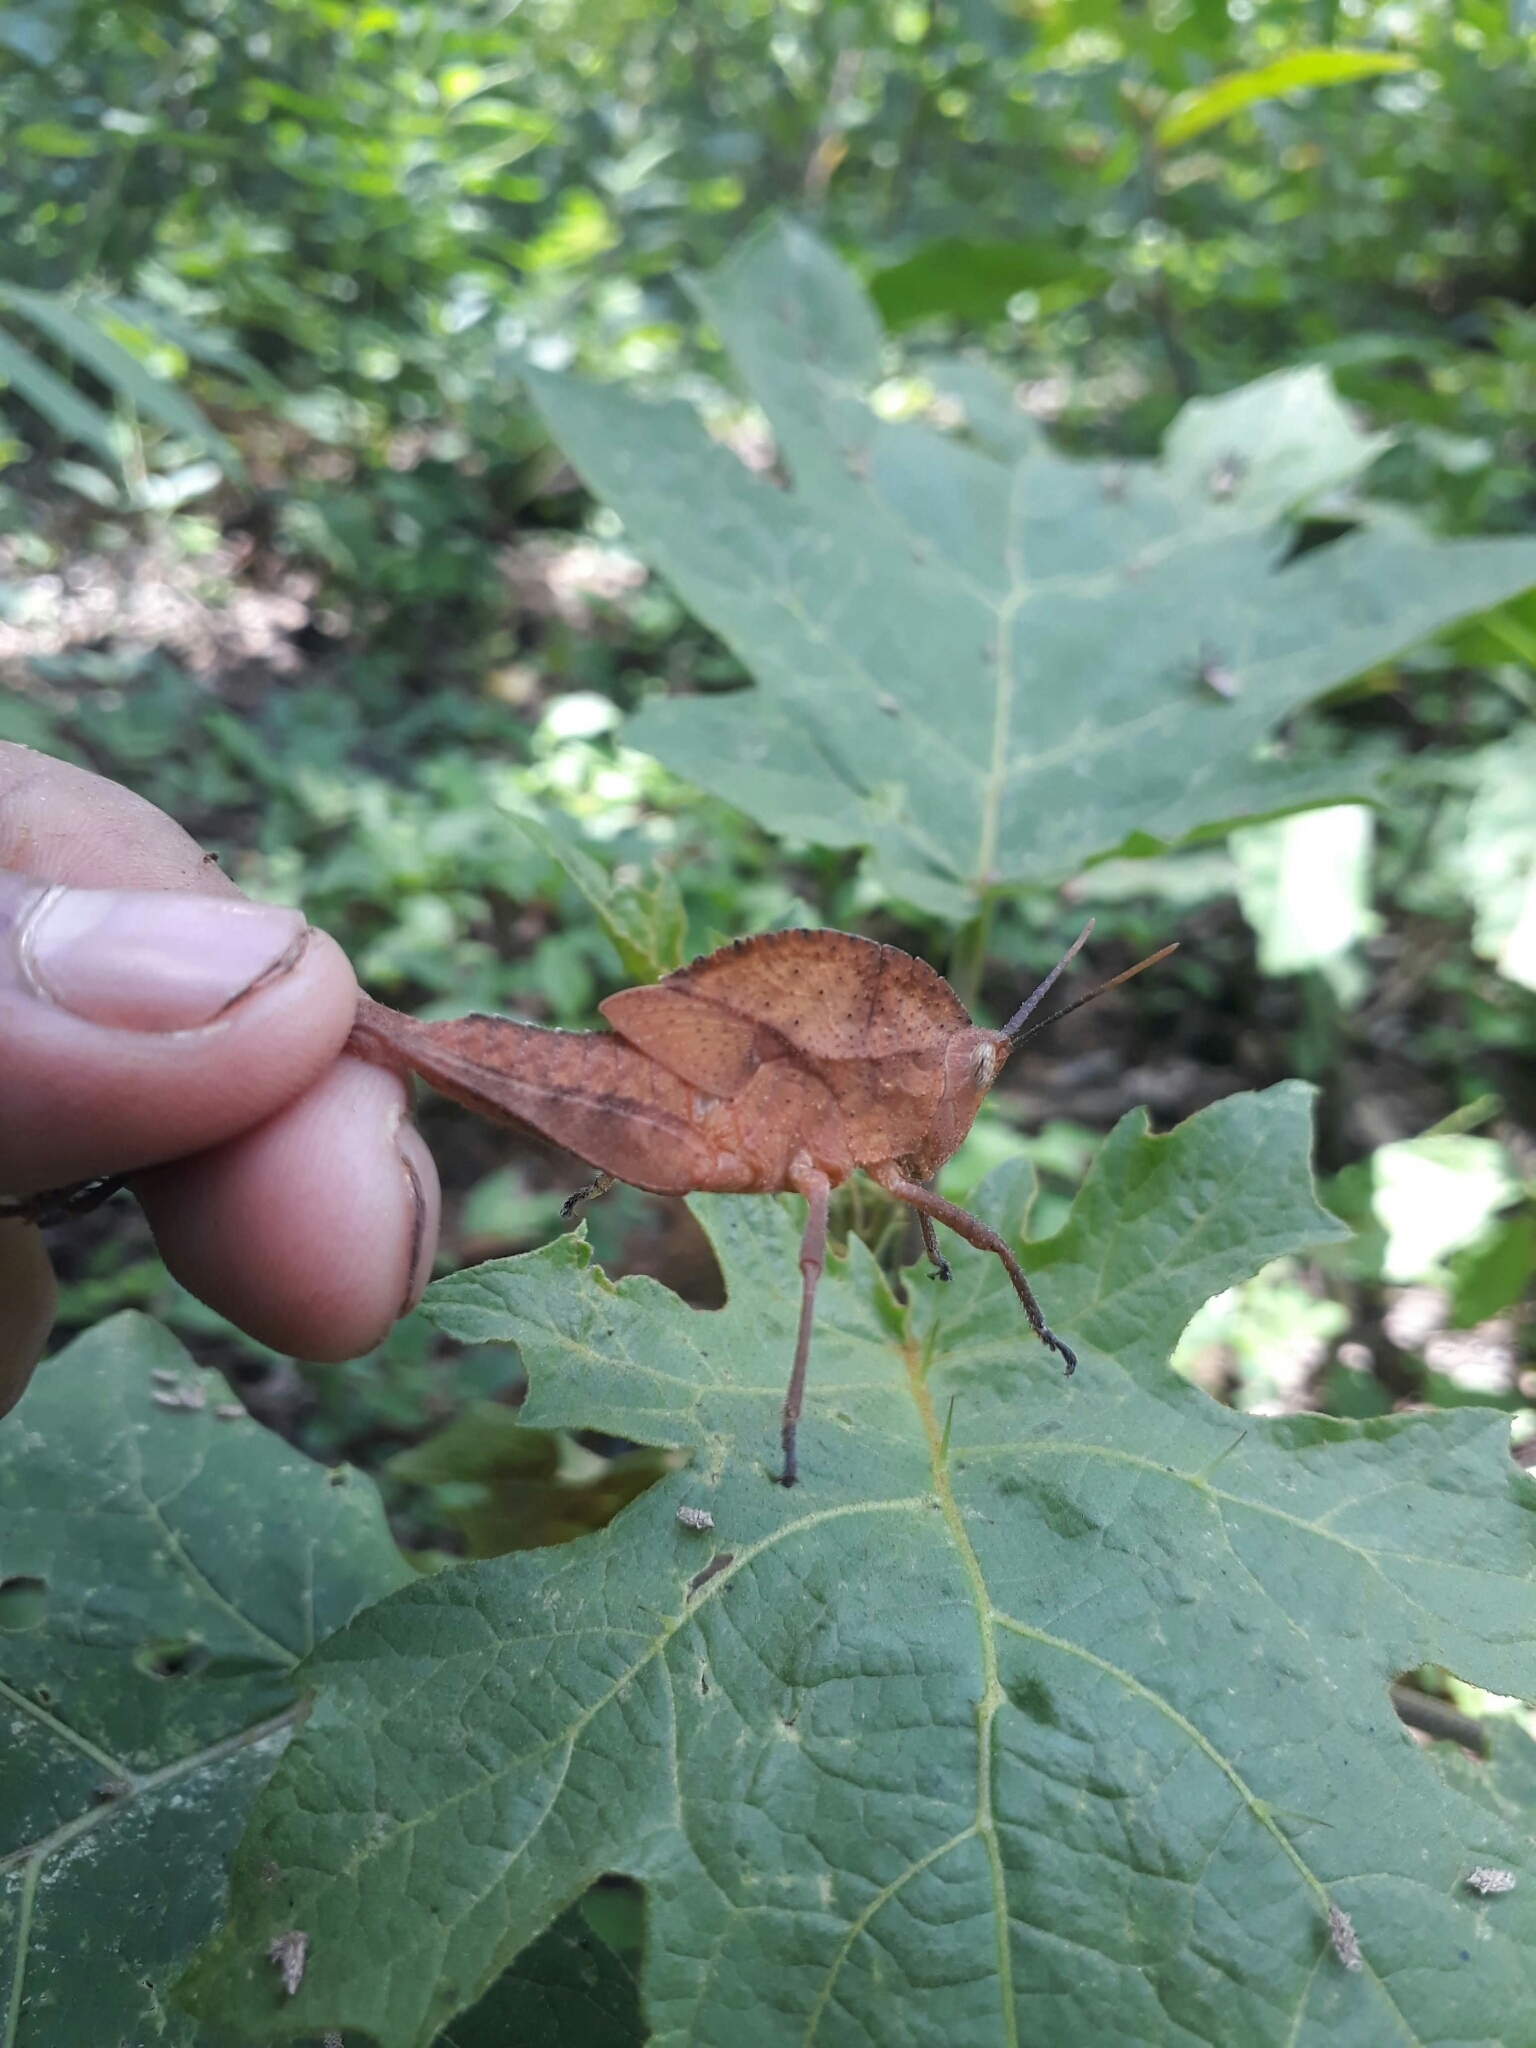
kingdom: Animalia
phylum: Arthropoda
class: Insecta
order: Orthoptera
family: Romaleidae
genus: Xyleus
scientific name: Xyleus discoideus
